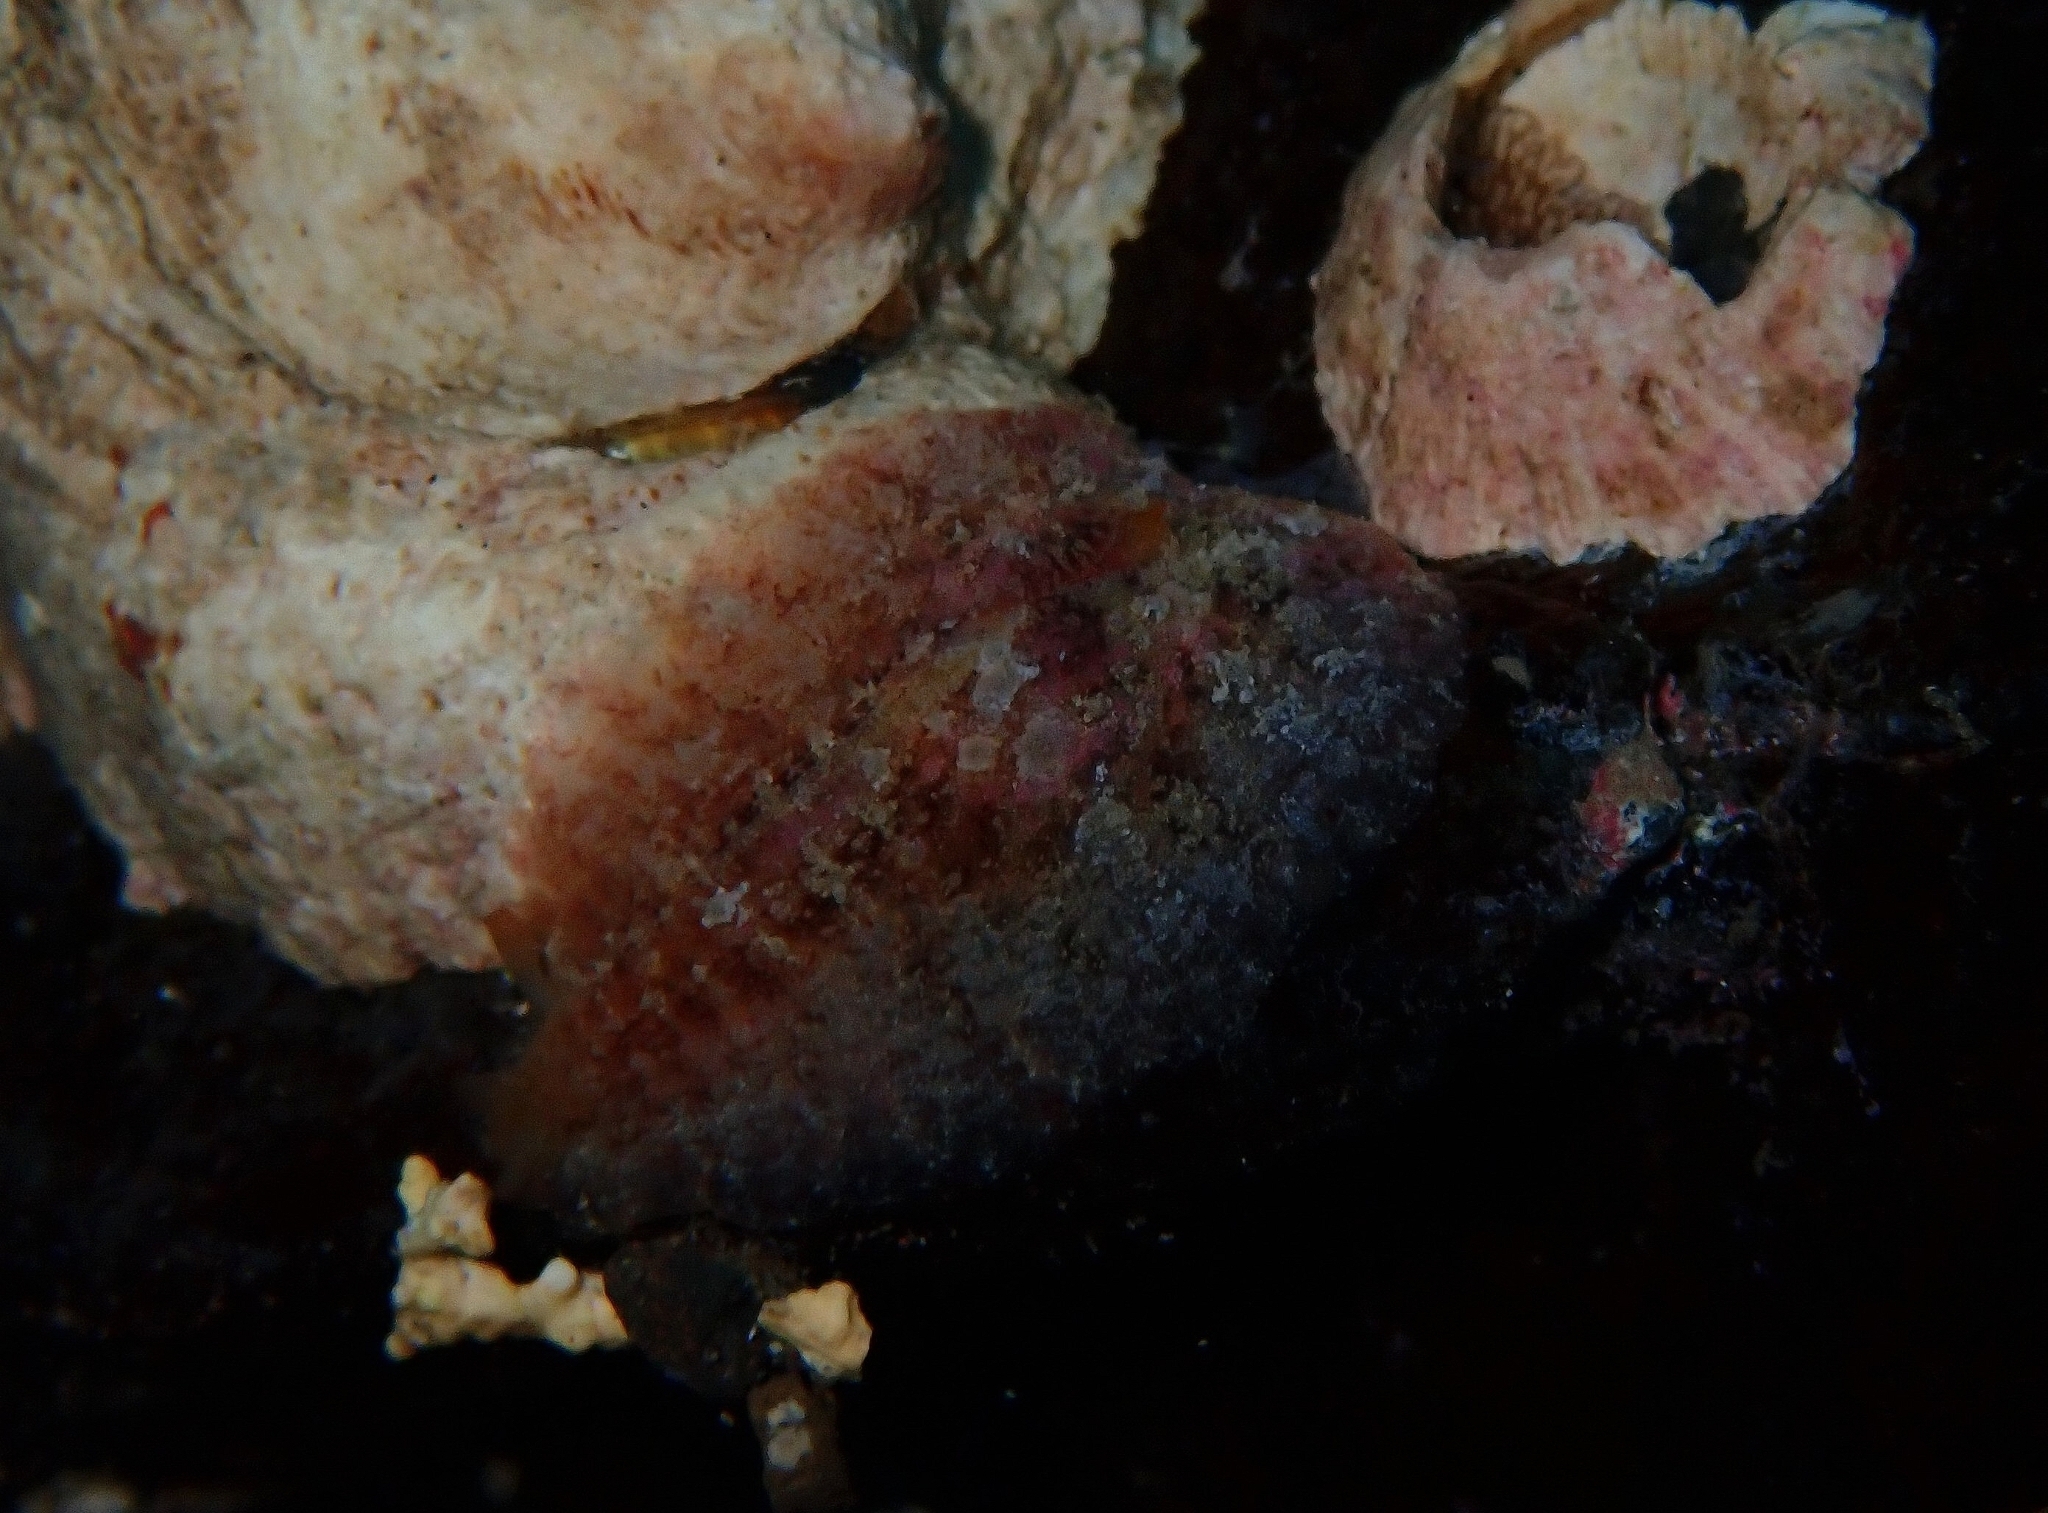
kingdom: Animalia
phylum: Mollusca
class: Gastropoda
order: Aplysiida
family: Aplysiidae
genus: Dolabrifera
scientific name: Dolabrifera edmundsi
